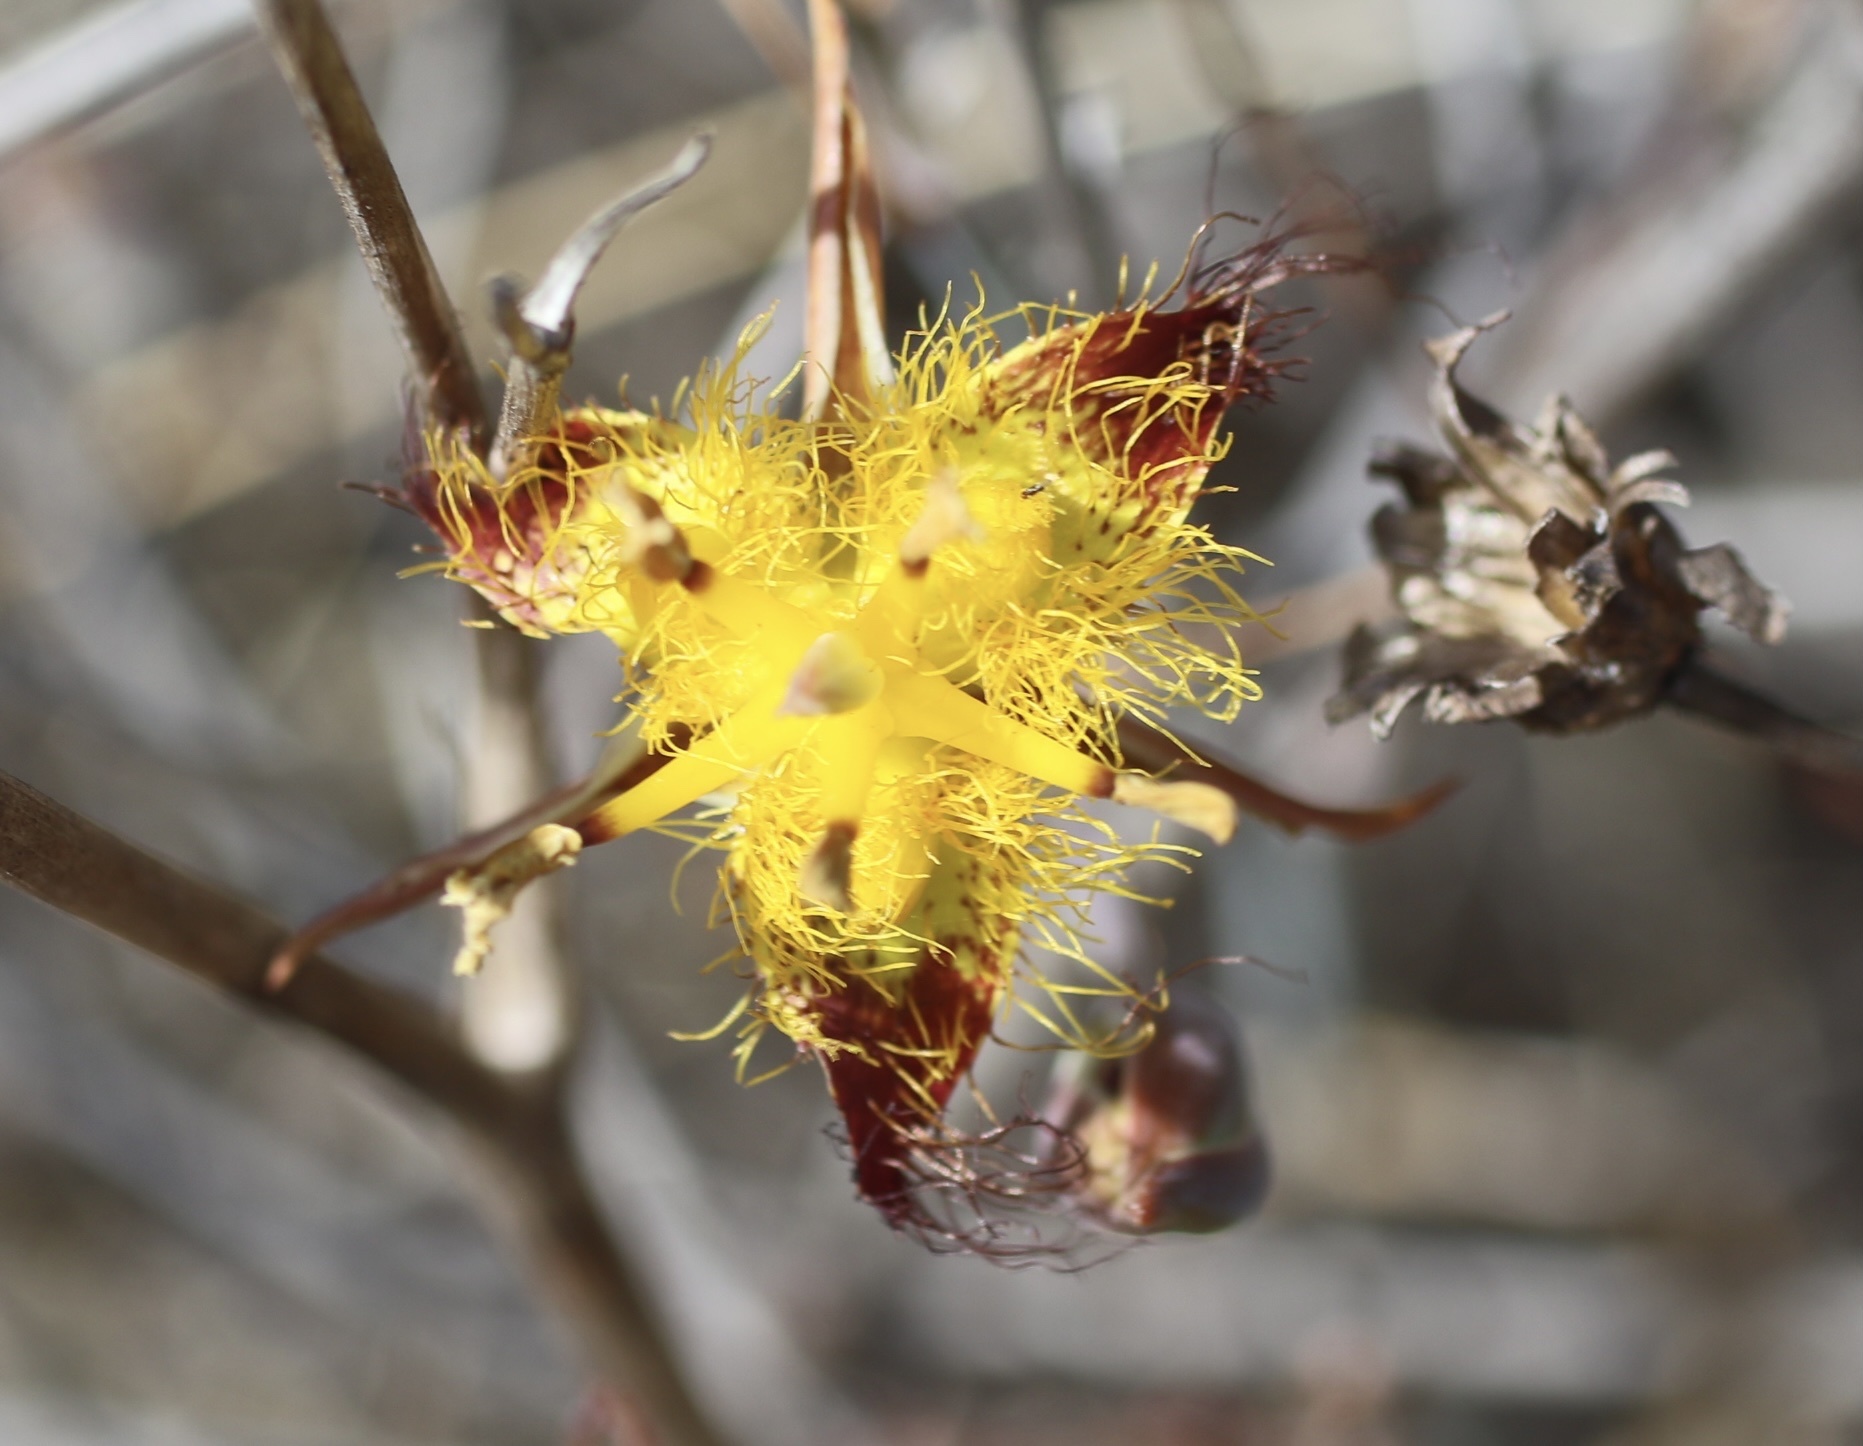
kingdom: Plantae
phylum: Tracheophyta
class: Liliopsida
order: Liliales
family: Liliaceae
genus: Calochortus
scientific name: Calochortus obispoensis
